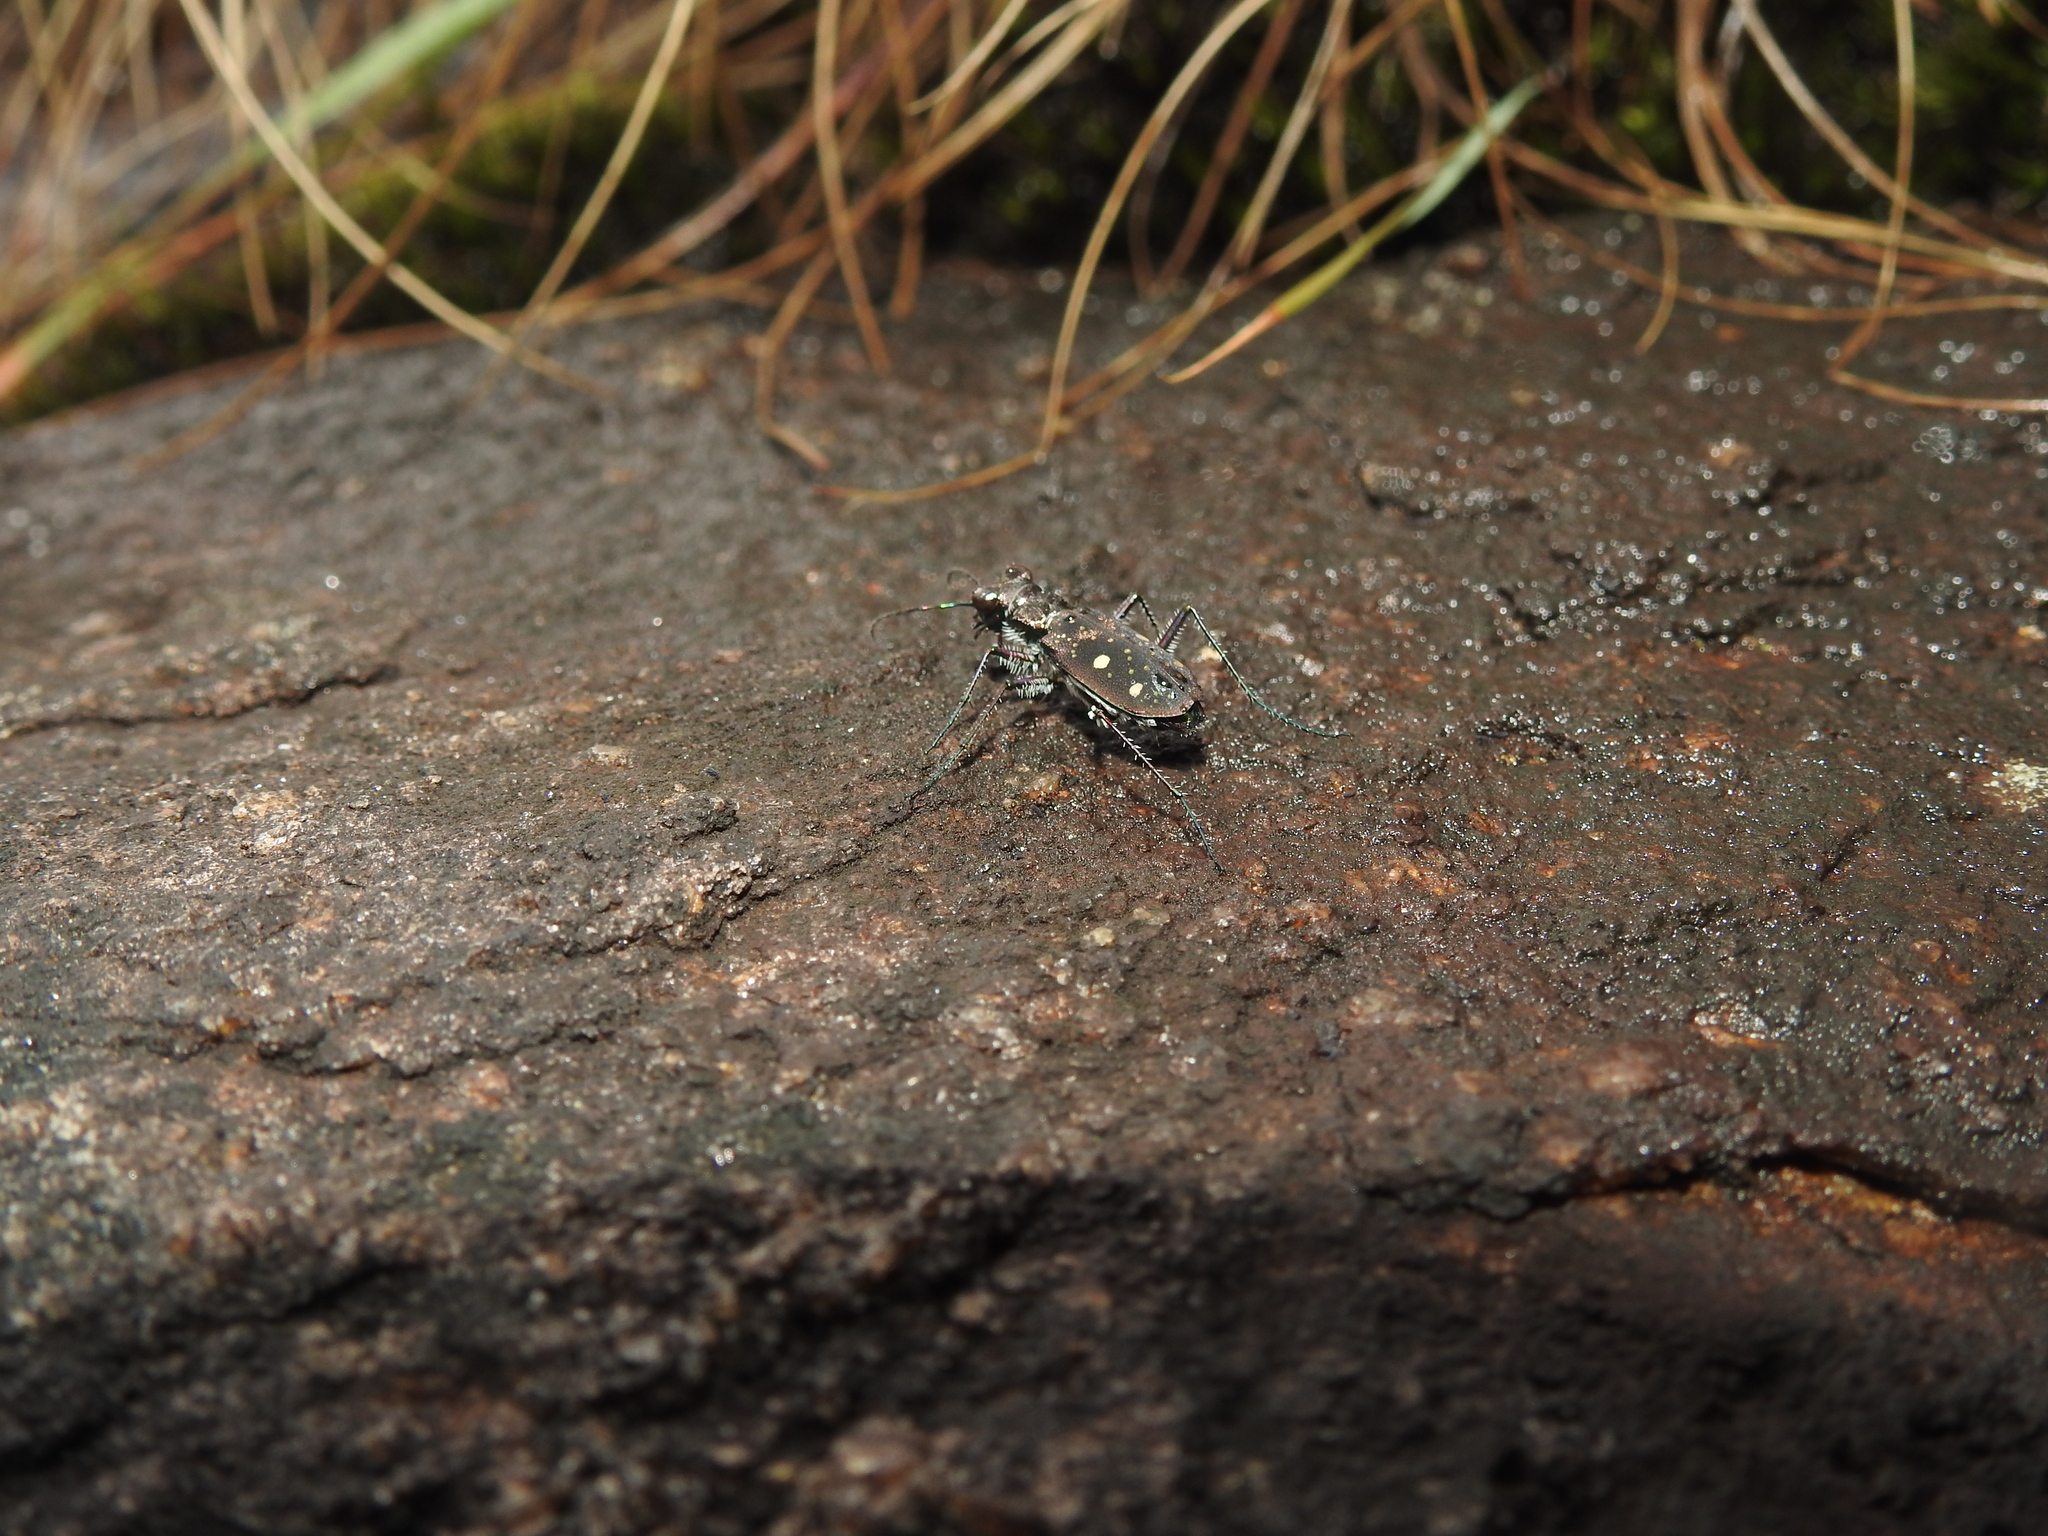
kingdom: Animalia
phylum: Arthropoda
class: Insecta
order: Coleoptera
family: Carabidae
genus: Jansenia
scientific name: Jansenia tetragrammica
